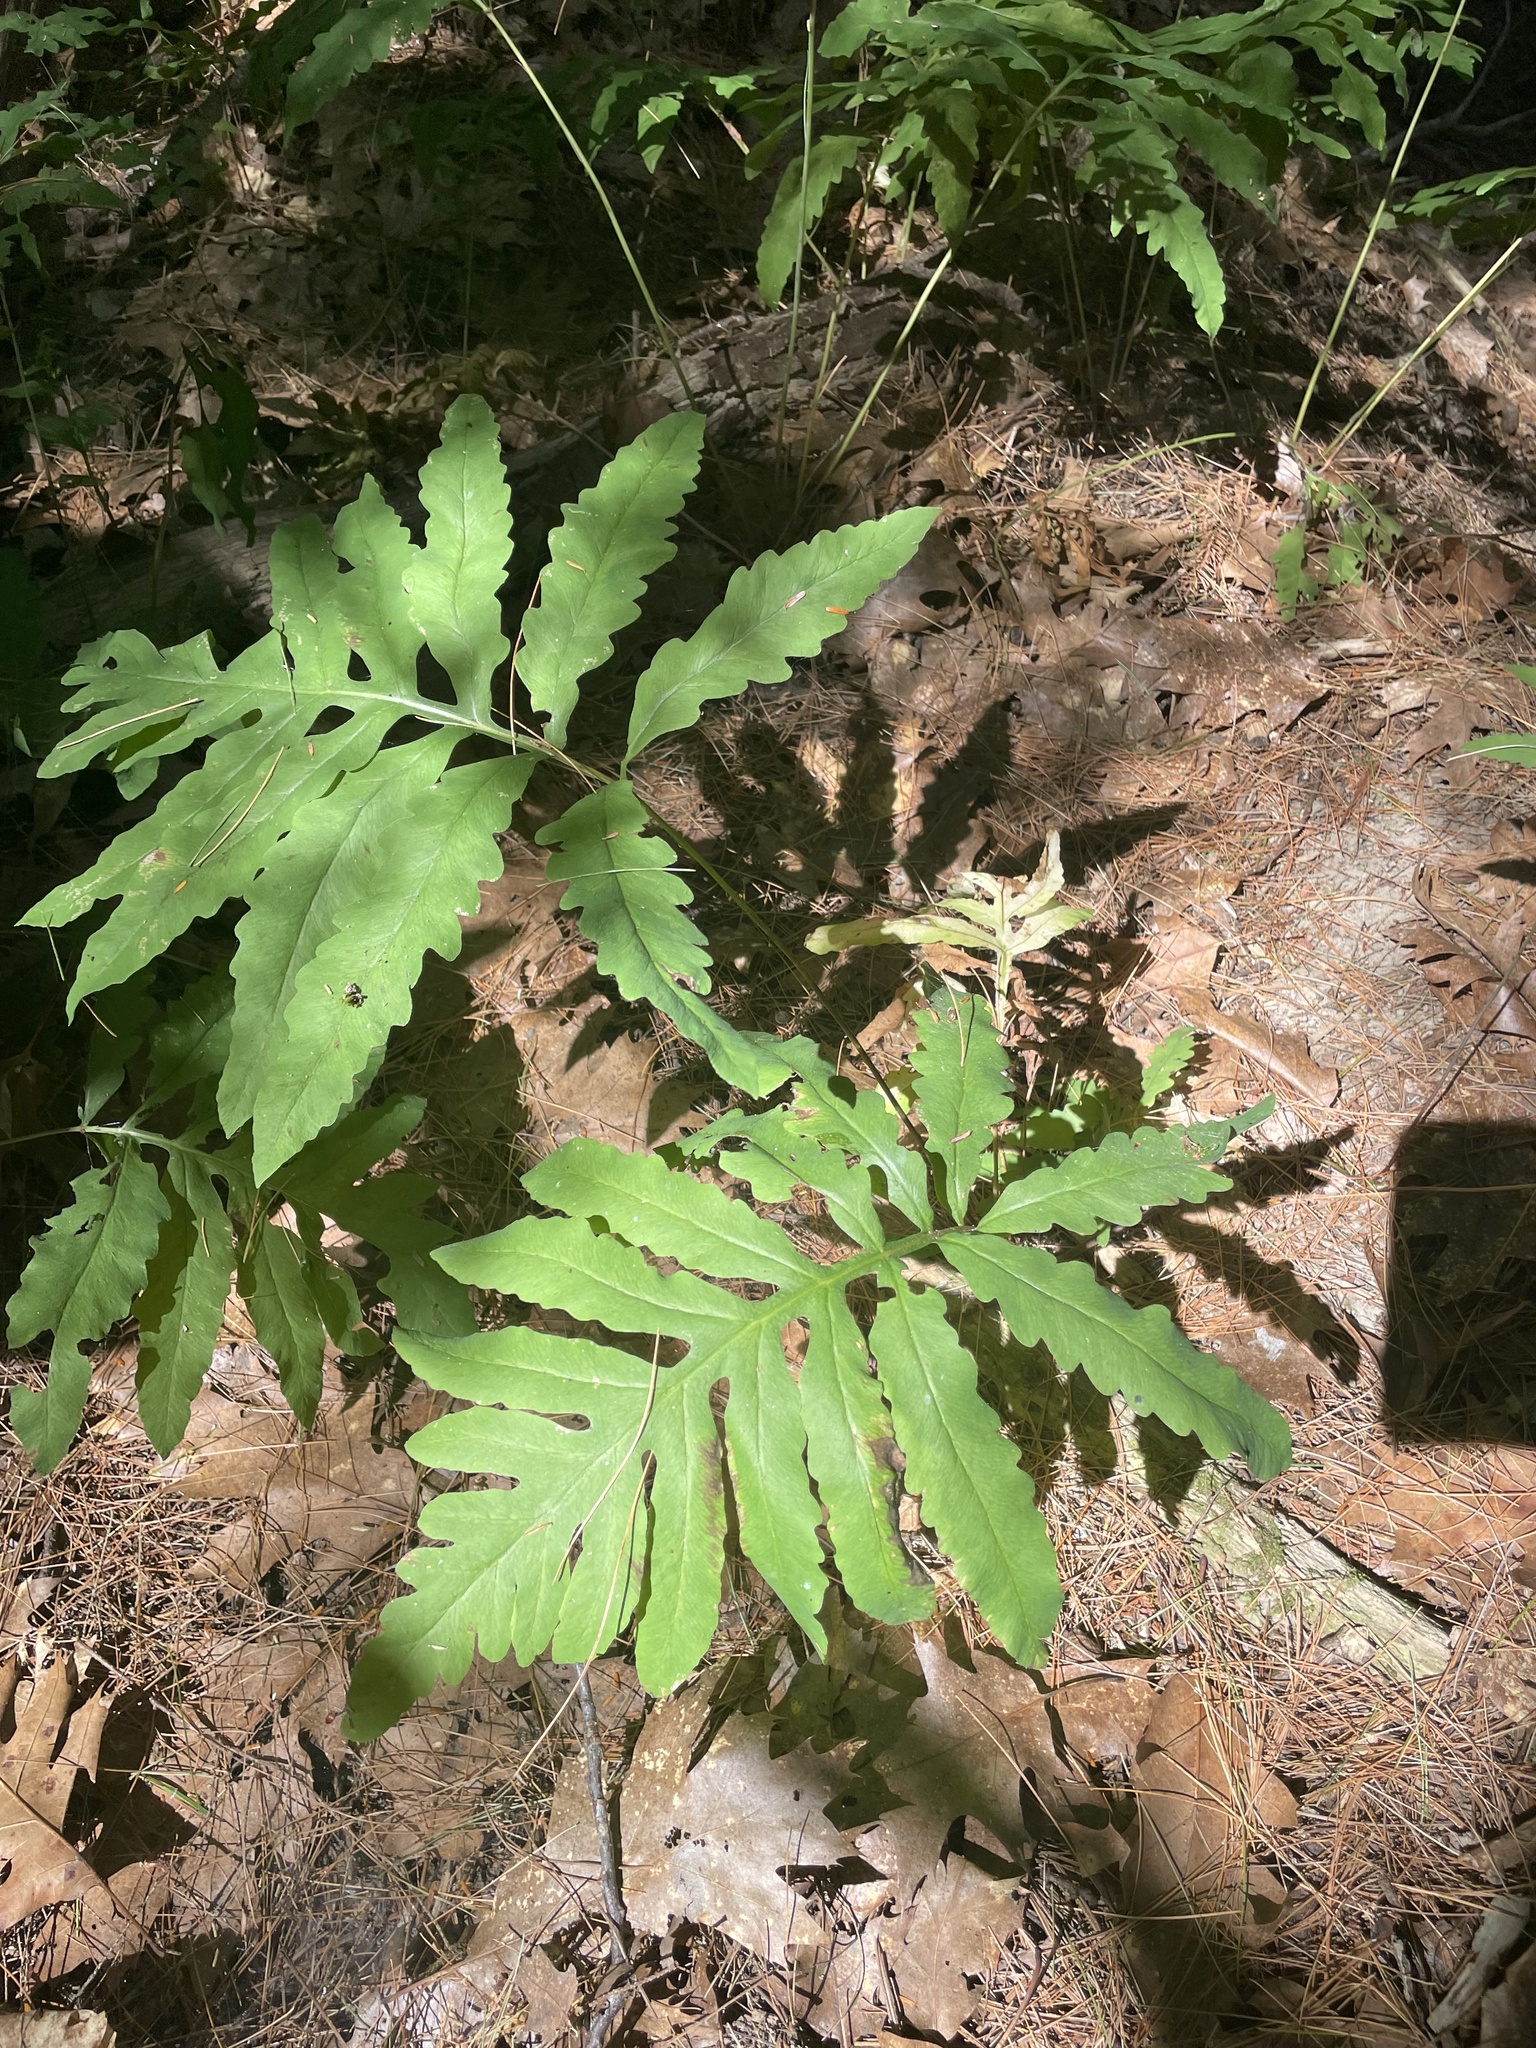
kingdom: Plantae
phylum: Tracheophyta
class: Polypodiopsida
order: Polypodiales
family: Onocleaceae
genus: Onoclea
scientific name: Onoclea sensibilis
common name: Sensitive fern
